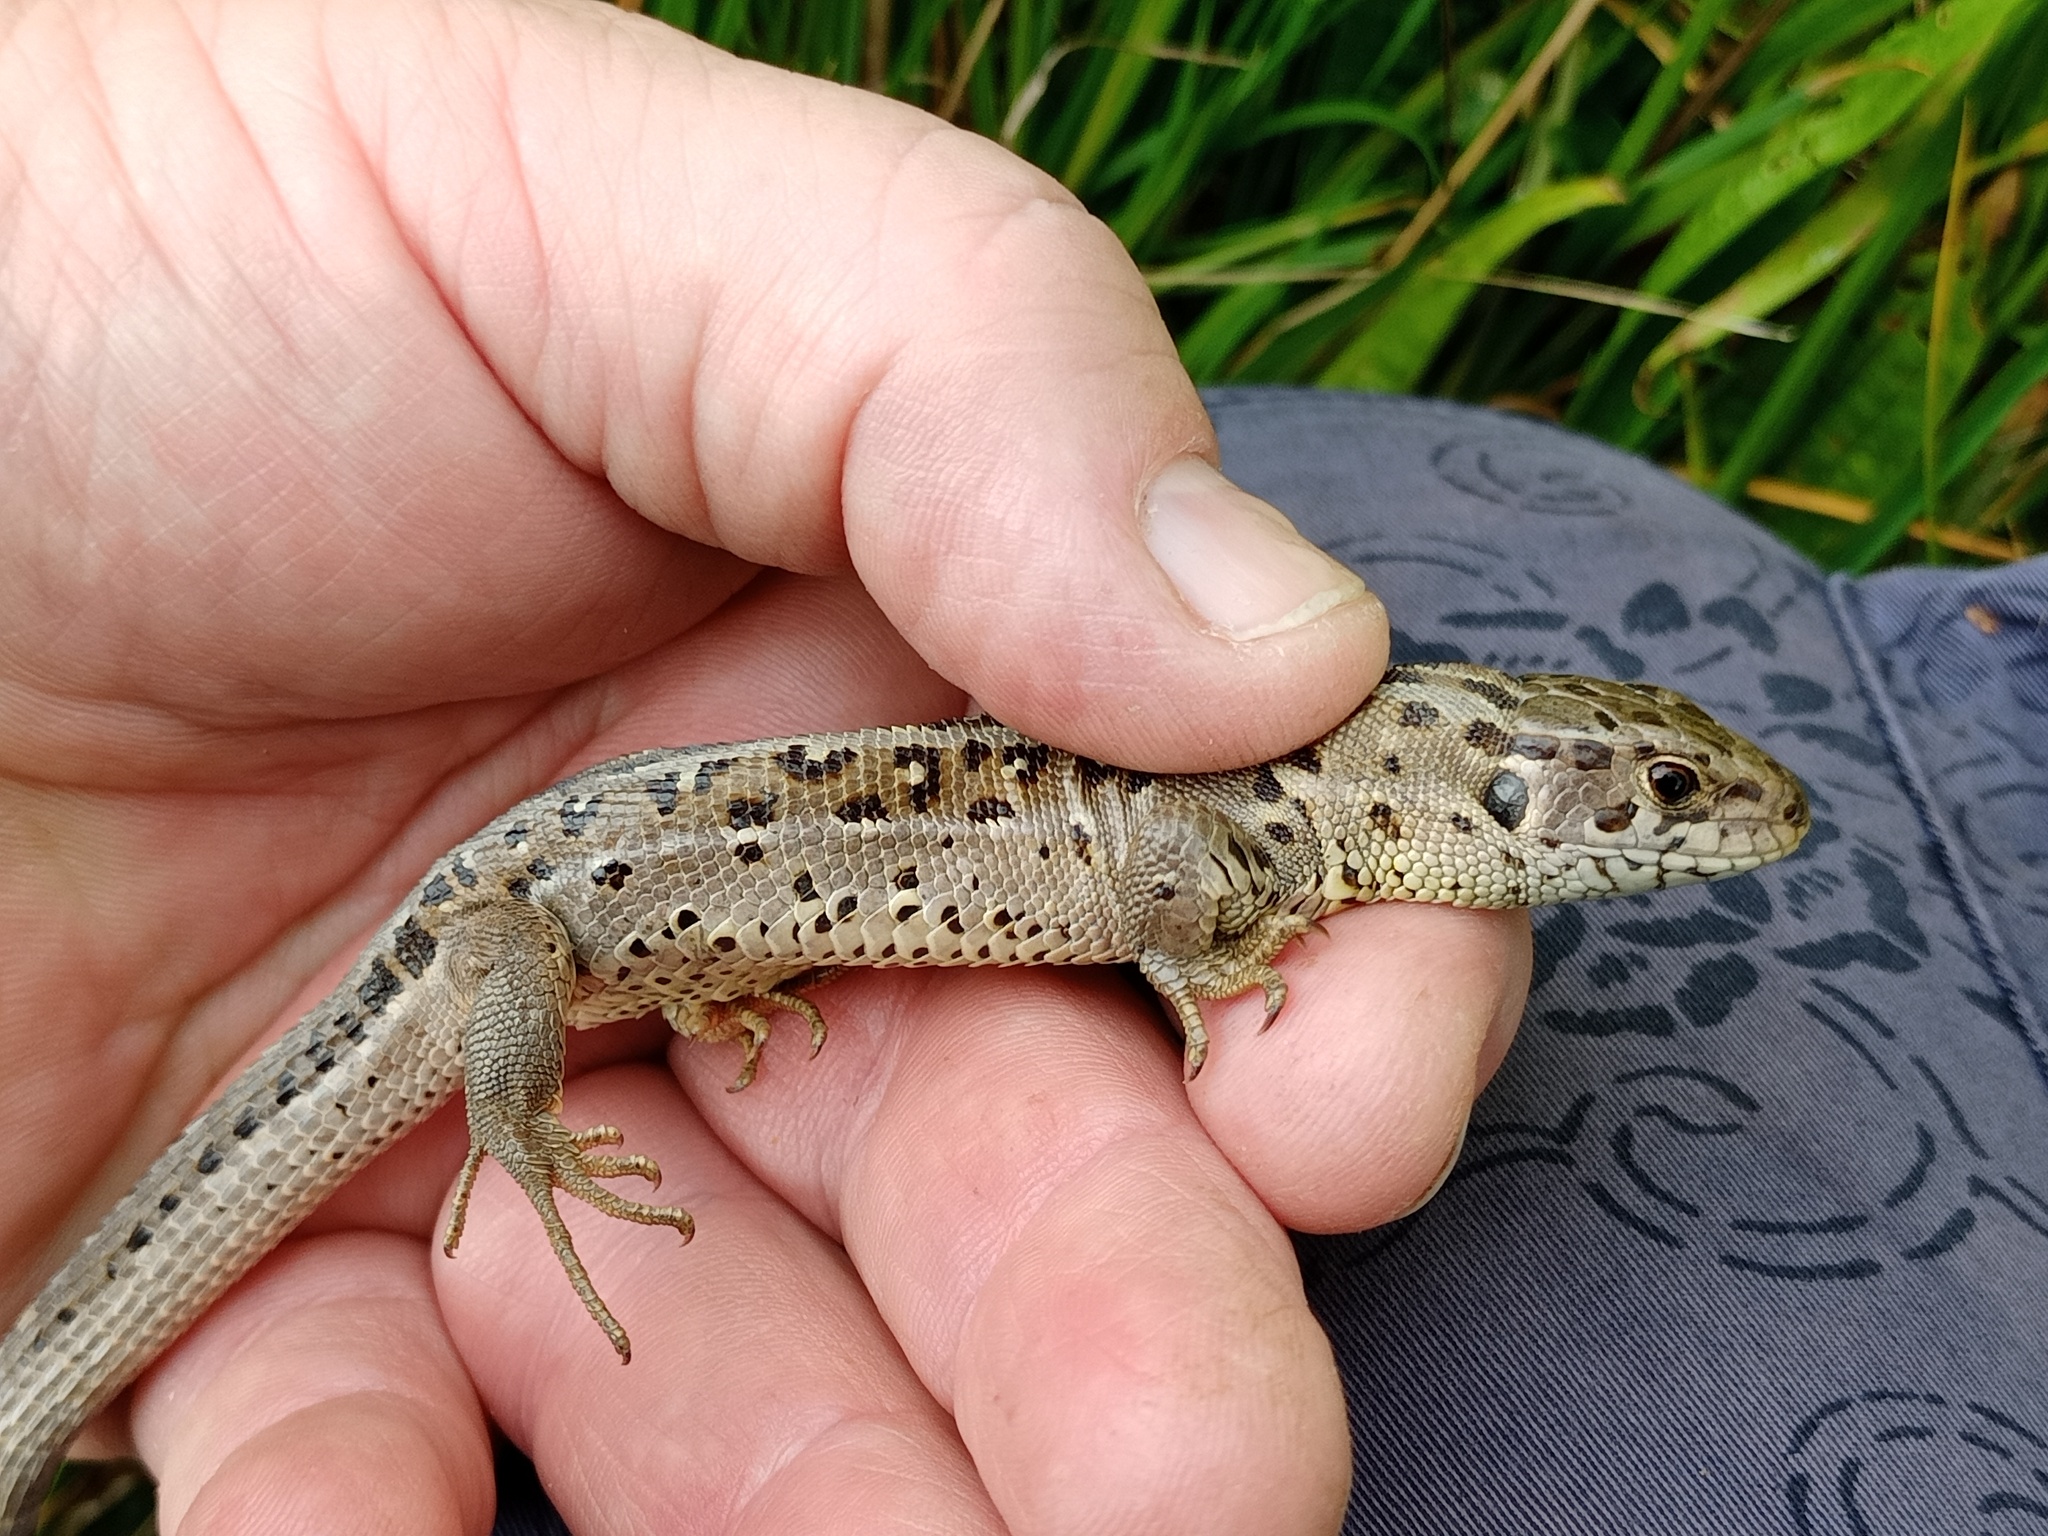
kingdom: Animalia
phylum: Chordata
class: Squamata
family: Lacertidae
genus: Lacerta
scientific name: Lacerta agilis
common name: Sand lizard
